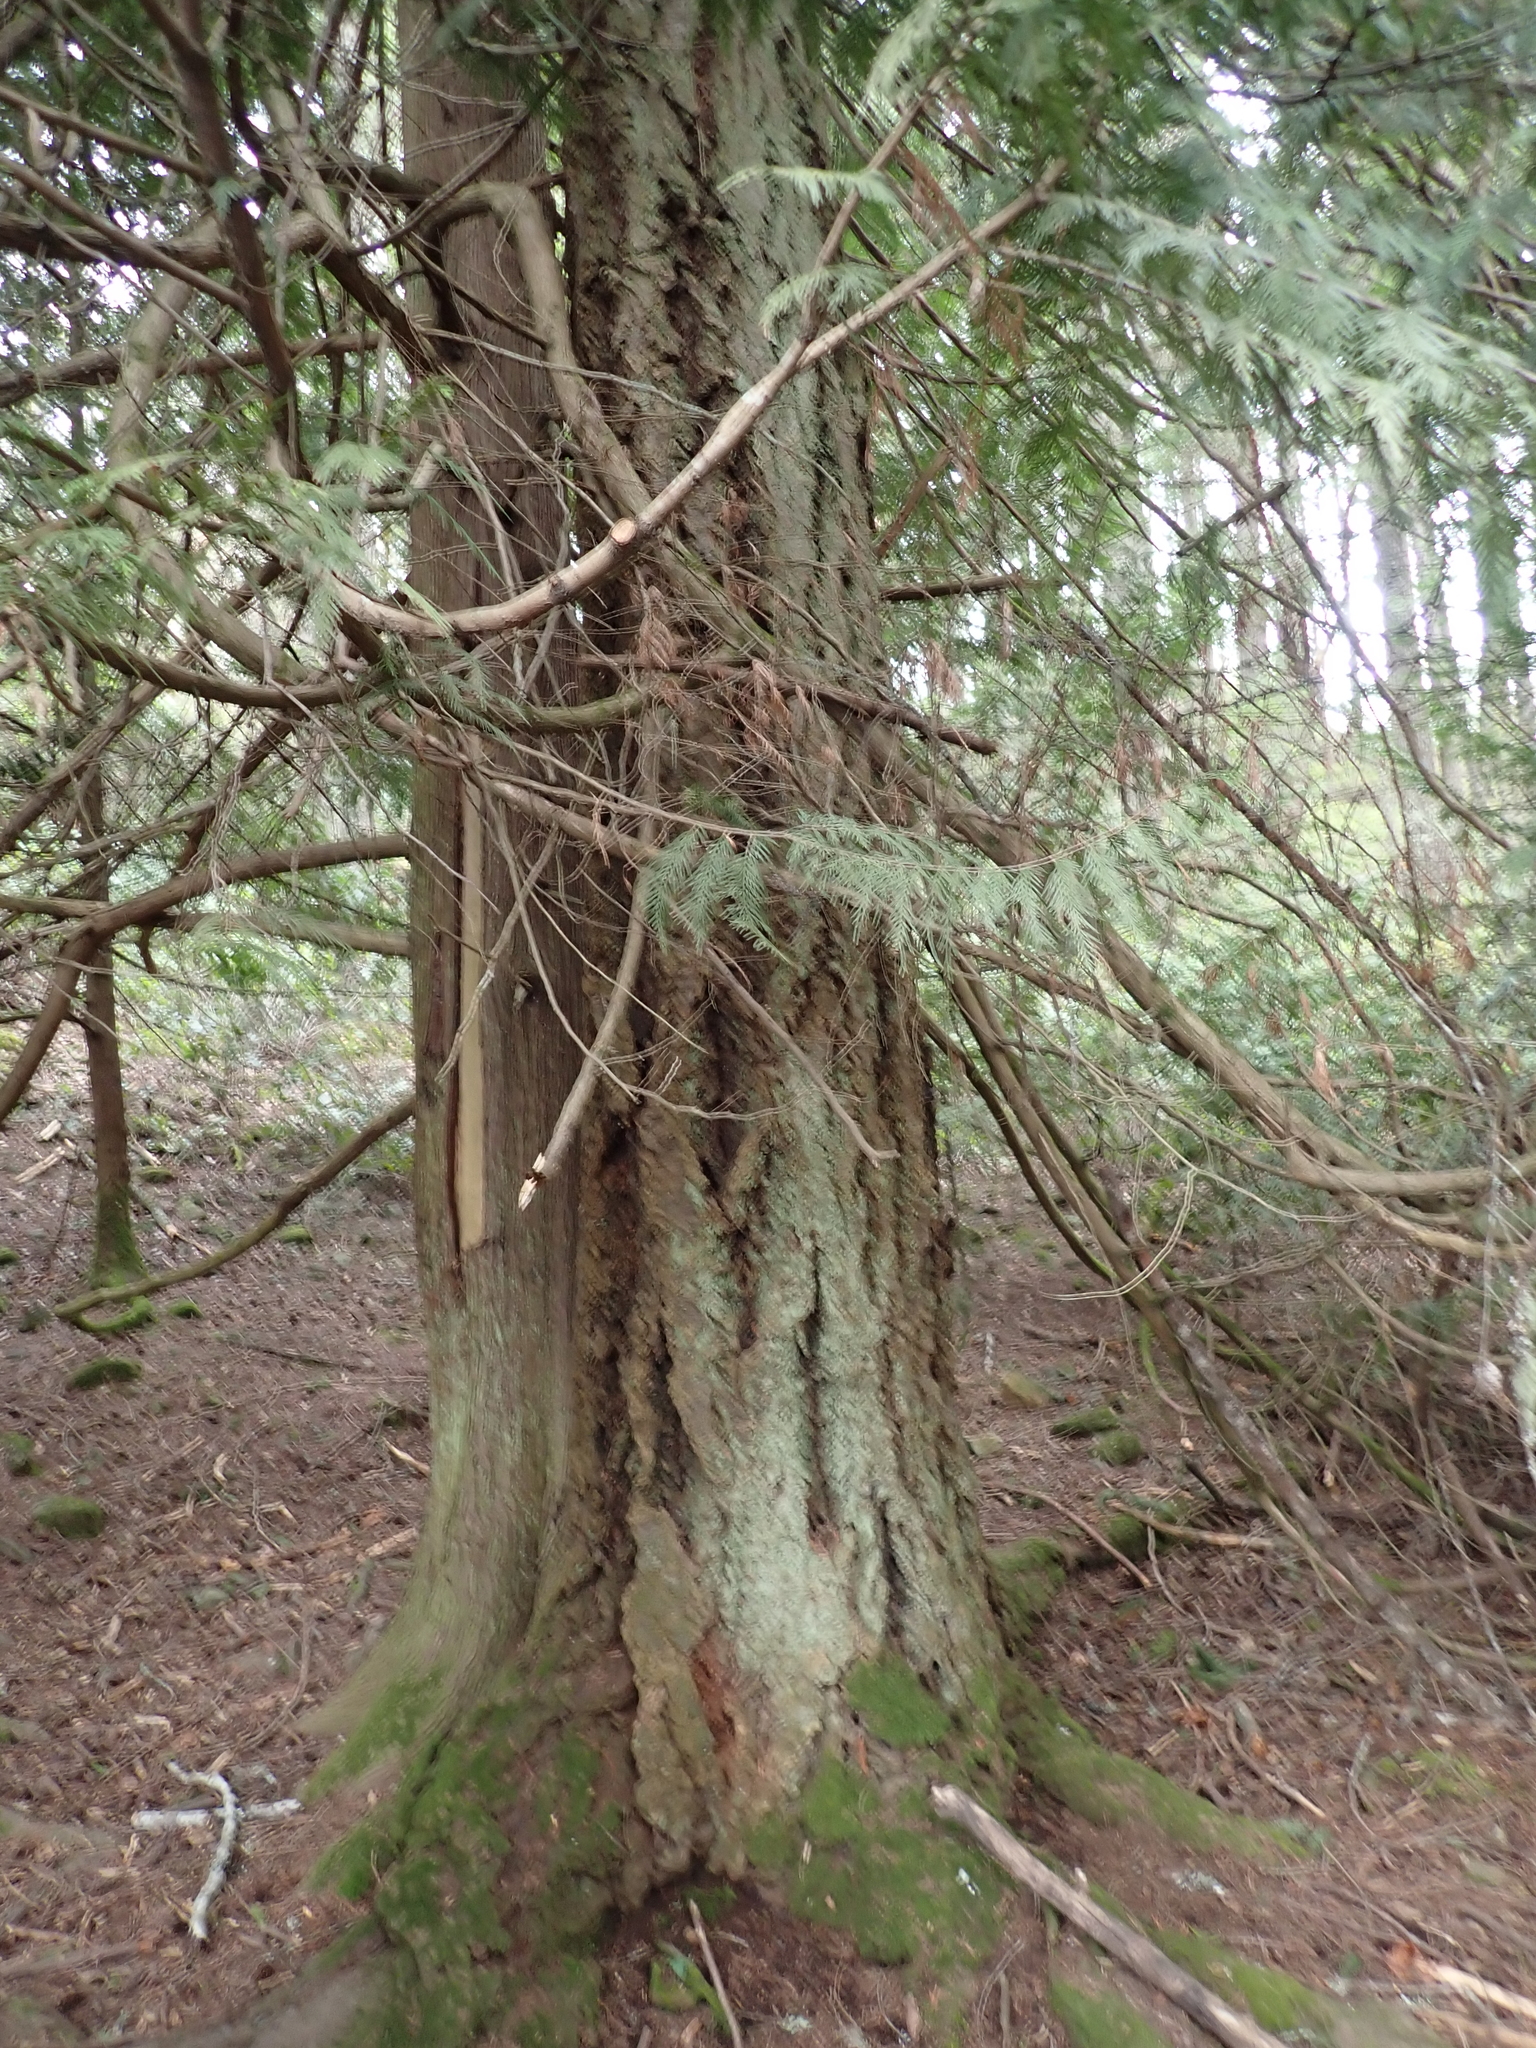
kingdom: Plantae
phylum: Tracheophyta
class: Pinopsida
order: Pinales
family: Cupressaceae
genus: Thuja
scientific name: Thuja plicata
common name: Western red-cedar
